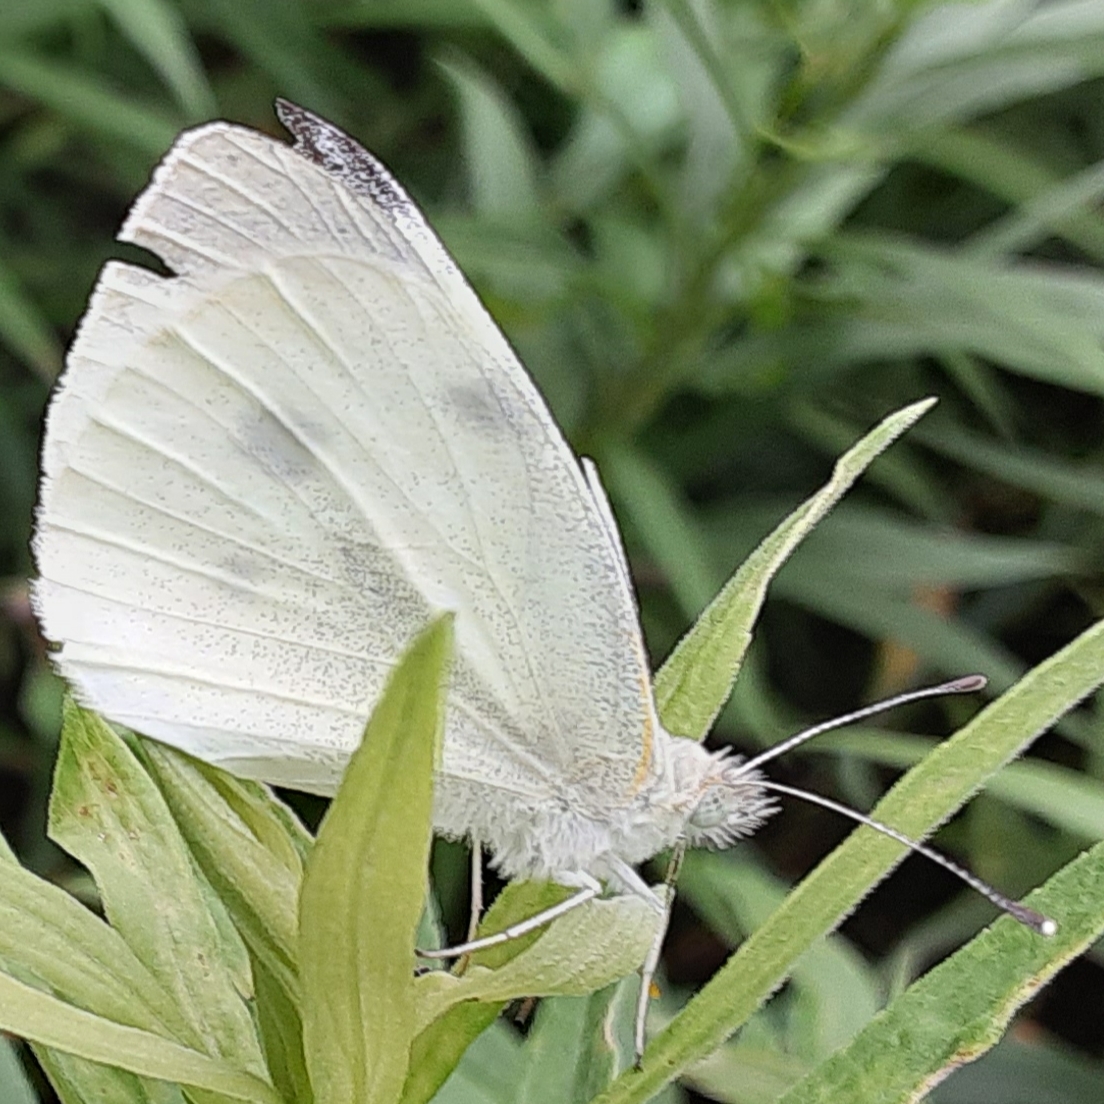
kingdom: Animalia
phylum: Arthropoda
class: Insecta
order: Lepidoptera
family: Pieridae
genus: Pieris
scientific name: Pieris rapae
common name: Small white
